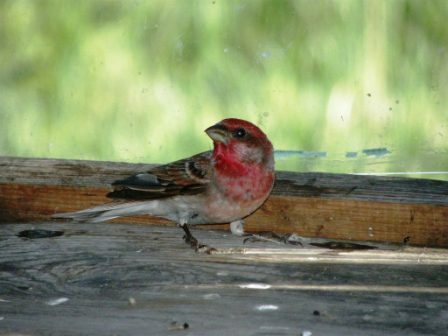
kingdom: Animalia
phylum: Chordata
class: Aves
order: Passeriformes
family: Fringillidae
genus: Carpodacus
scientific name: Carpodacus erythrinus
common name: Common rosefinch
